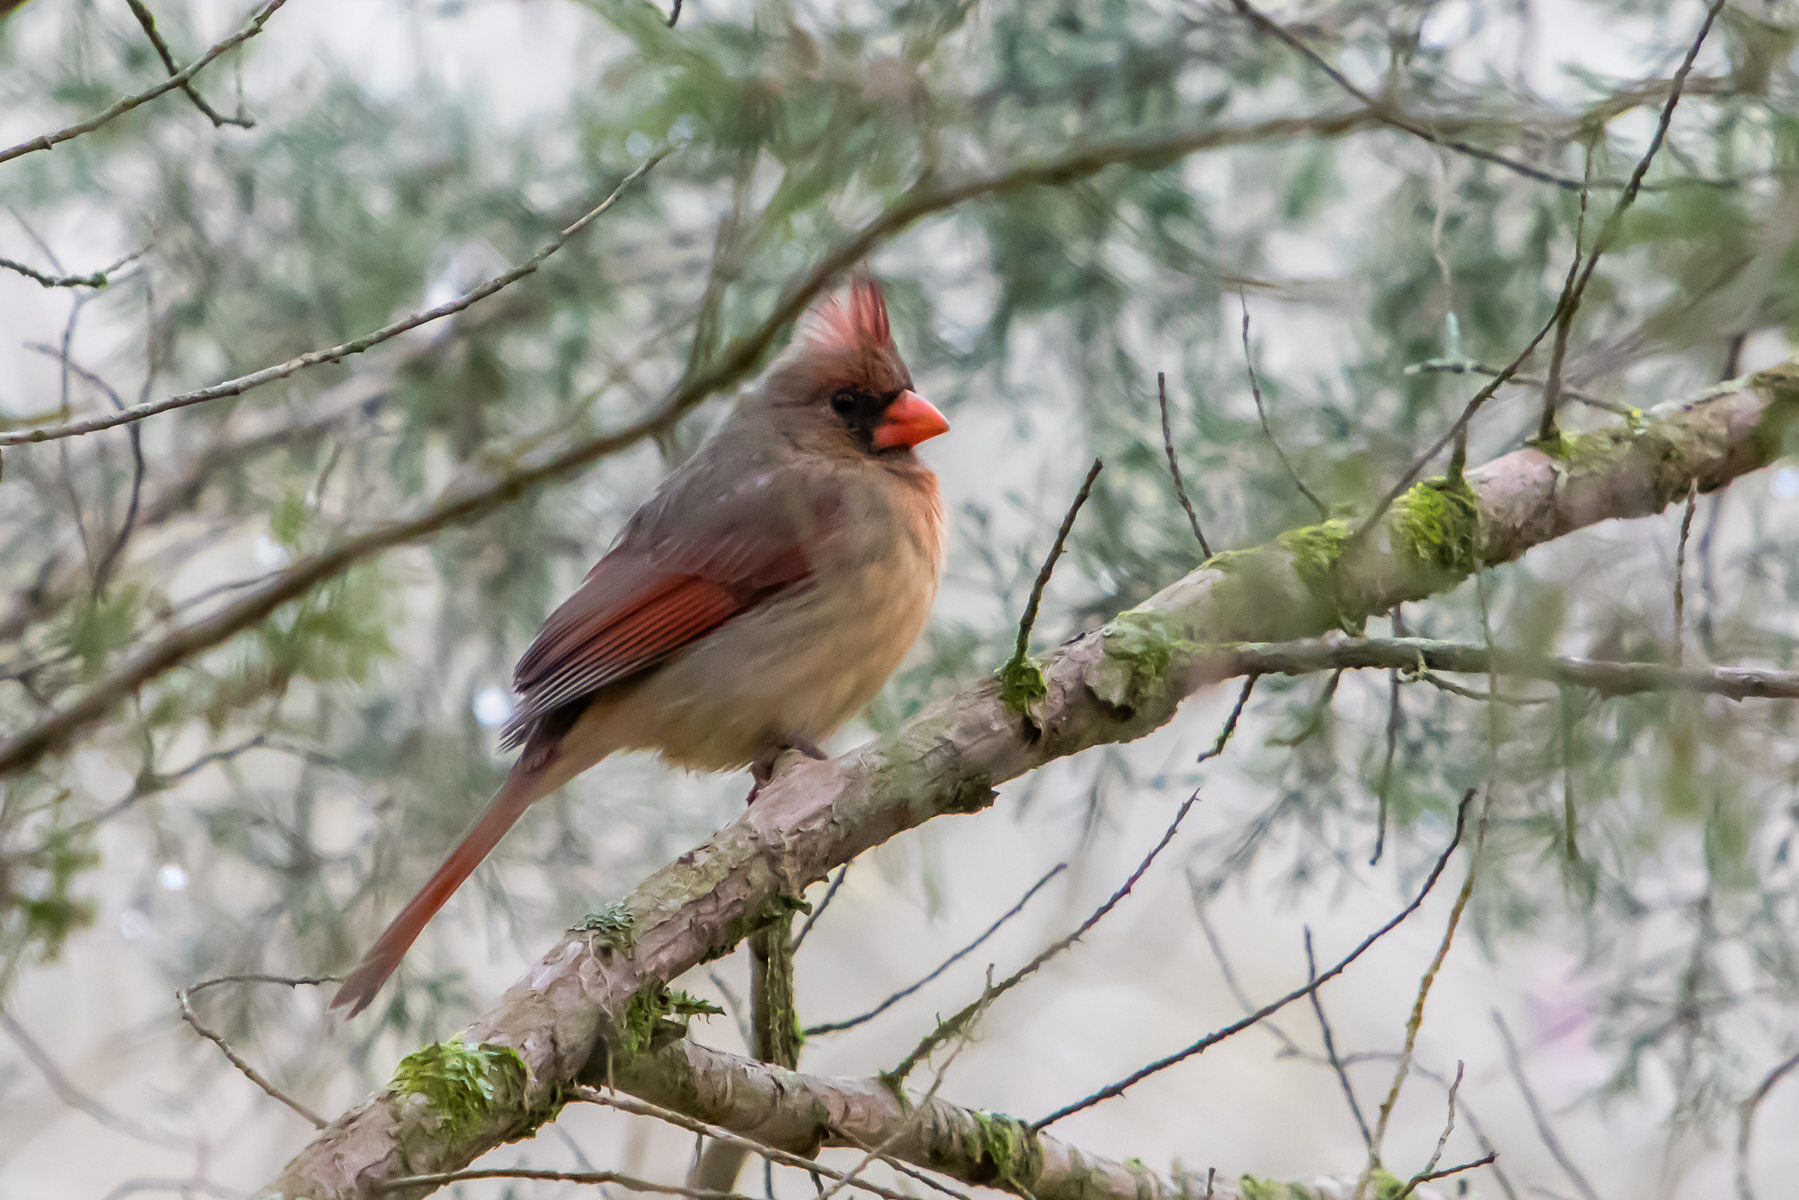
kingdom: Animalia
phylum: Chordata
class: Aves
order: Passeriformes
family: Cardinalidae
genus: Cardinalis
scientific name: Cardinalis cardinalis
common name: Northern cardinal
